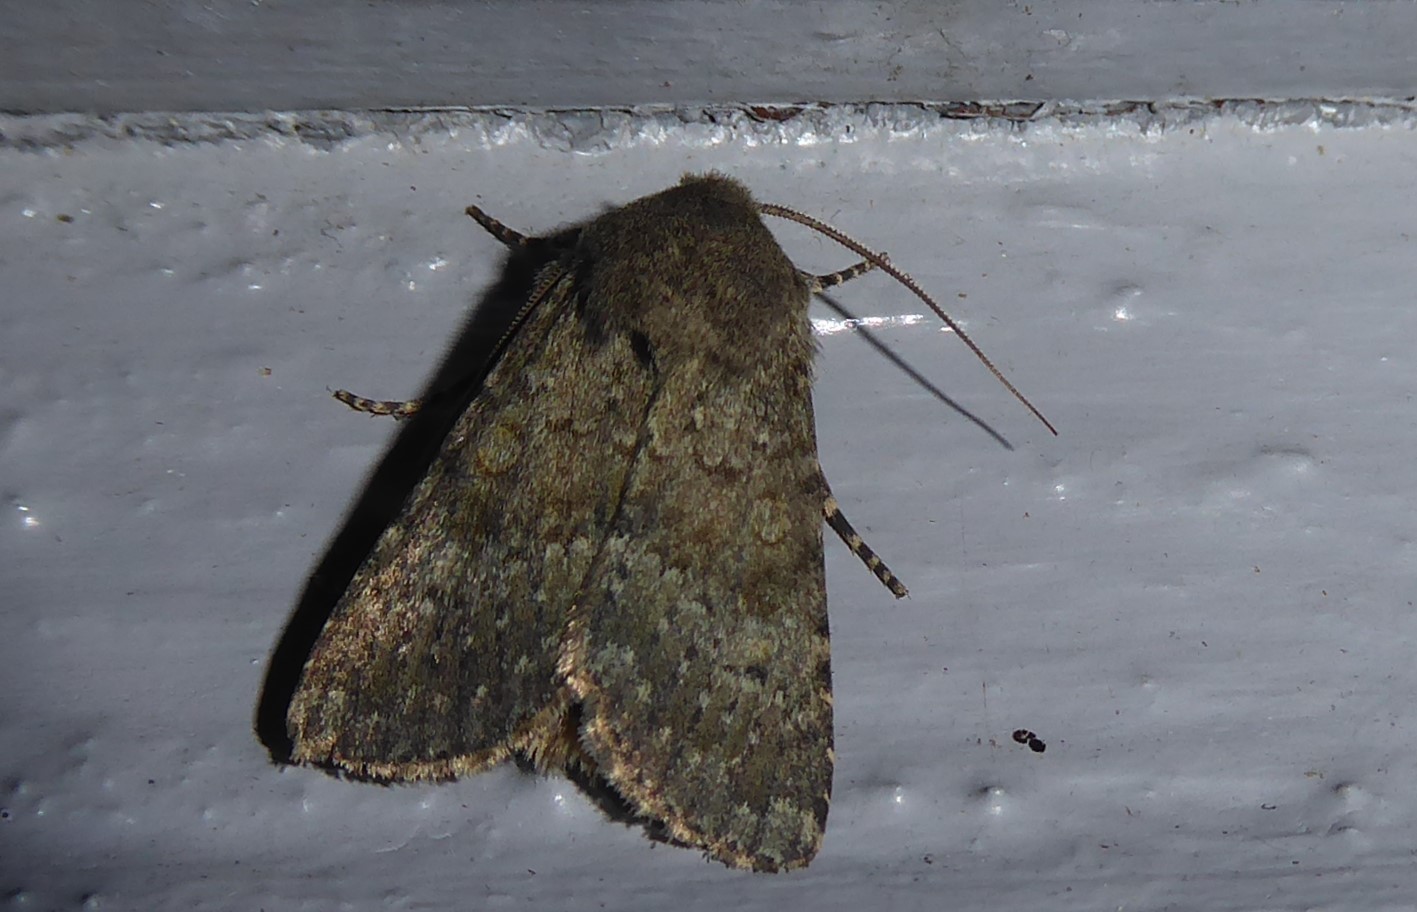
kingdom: Animalia
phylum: Arthropoda
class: Insecta
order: Lepidoptera
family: Noctuidae
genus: Ichneutica
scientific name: Ichneutica moderata
